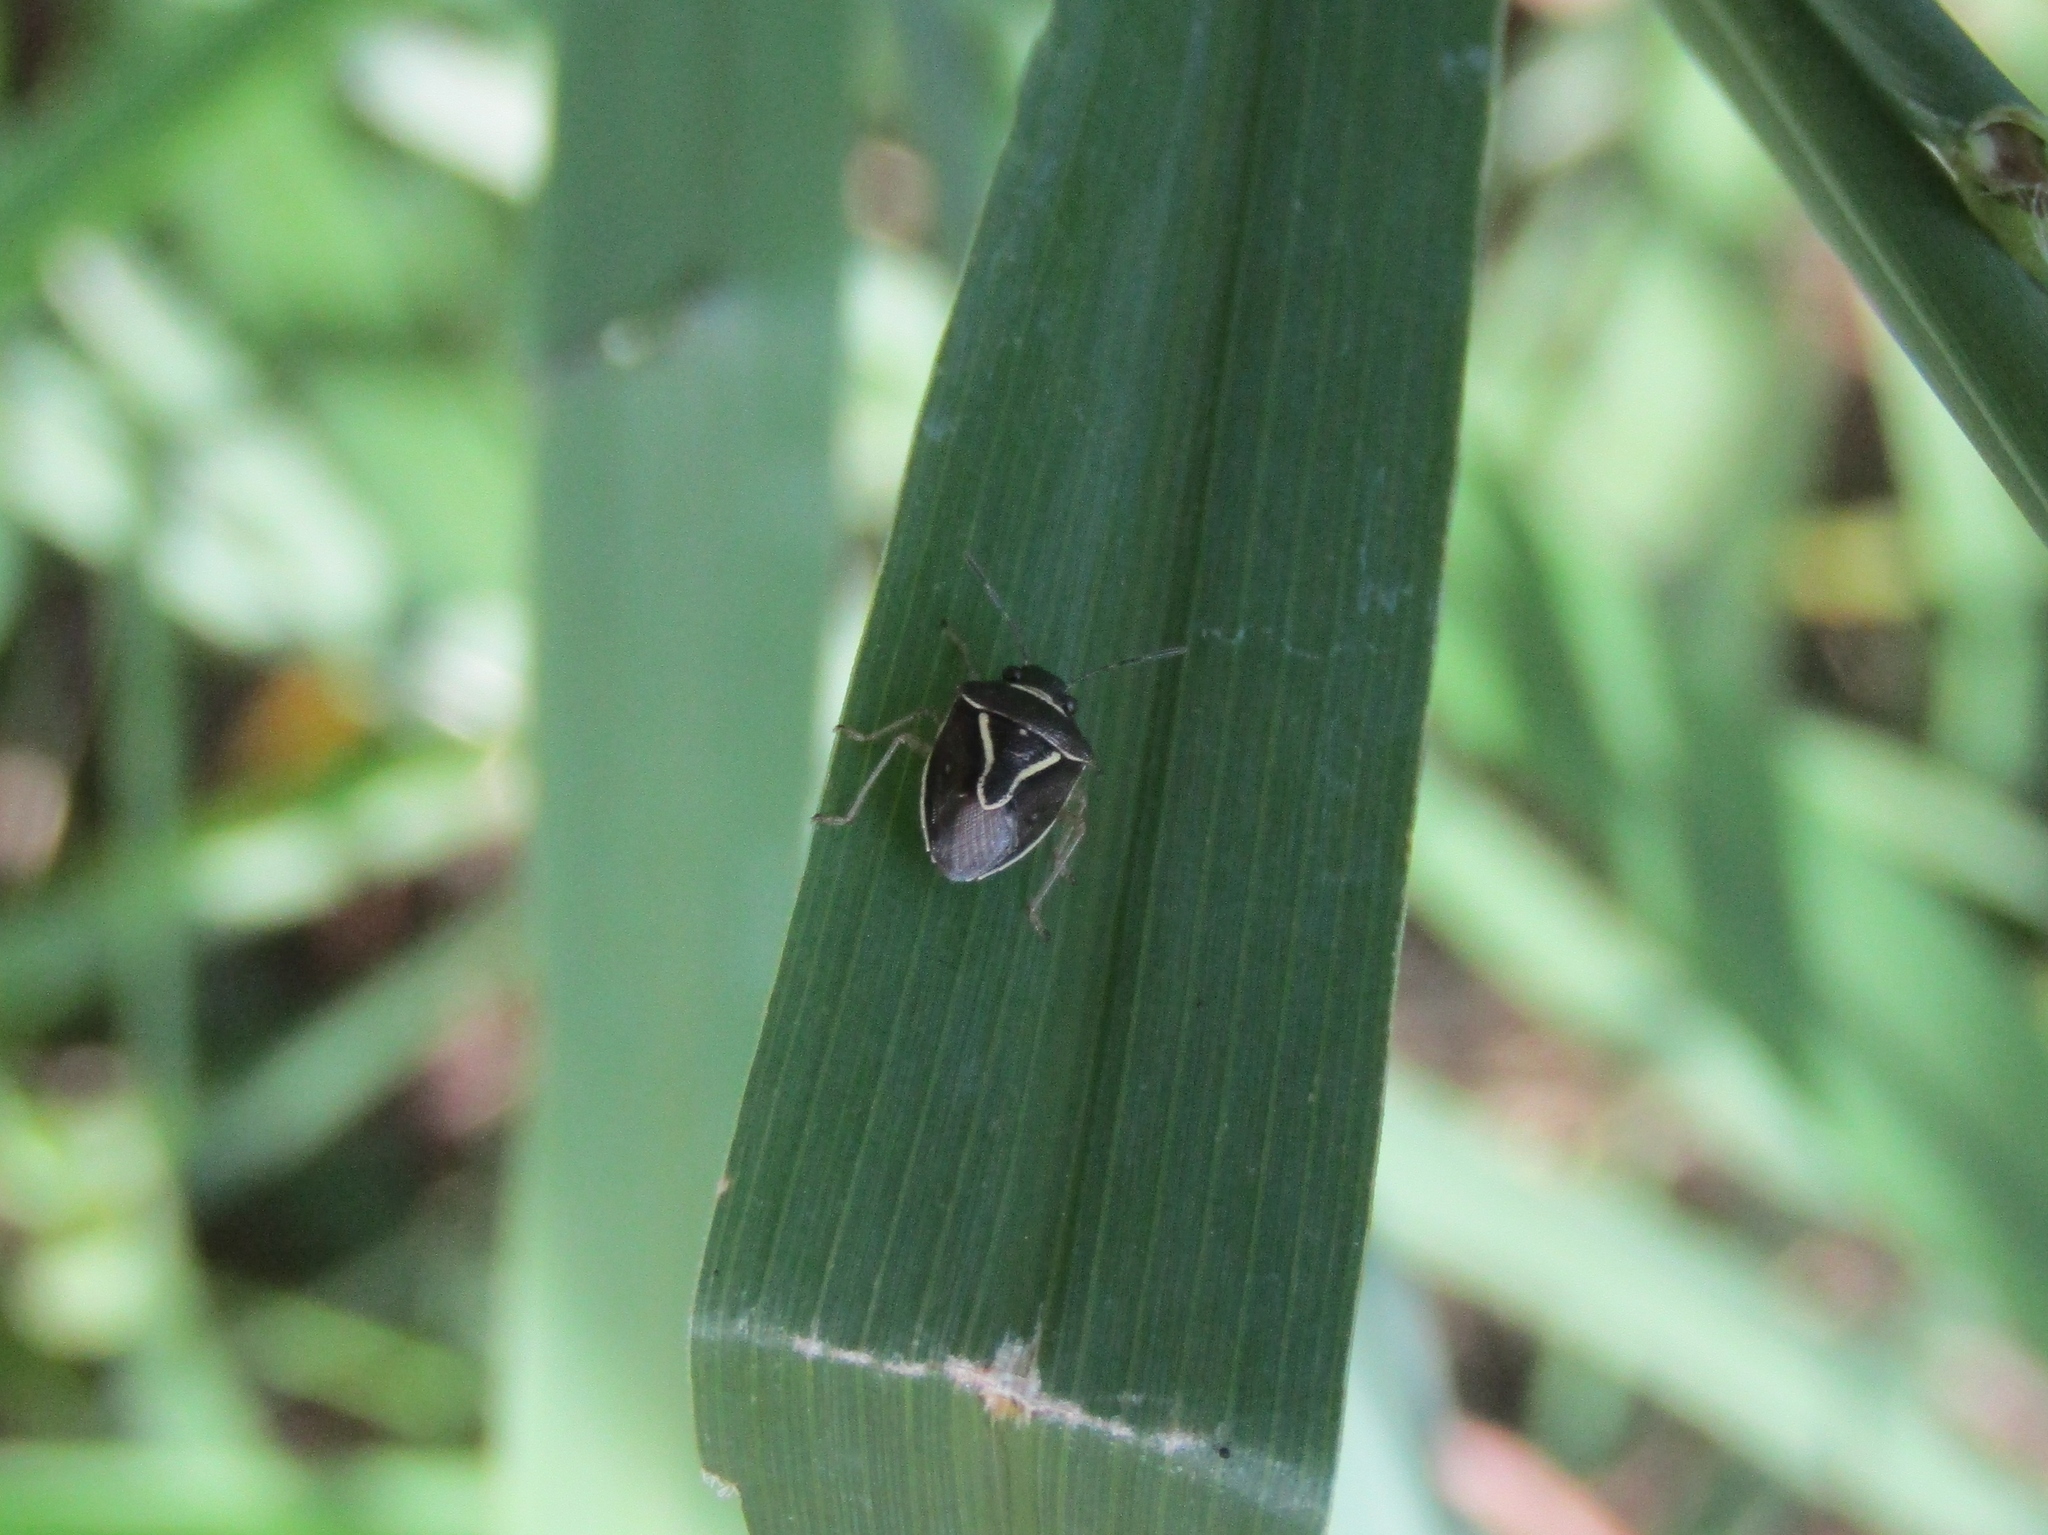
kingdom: Animalia
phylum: Arthropoda
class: Insecta
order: Hemiptera
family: Pentatomidae
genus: Mormidea
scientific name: Mormidea lugens
